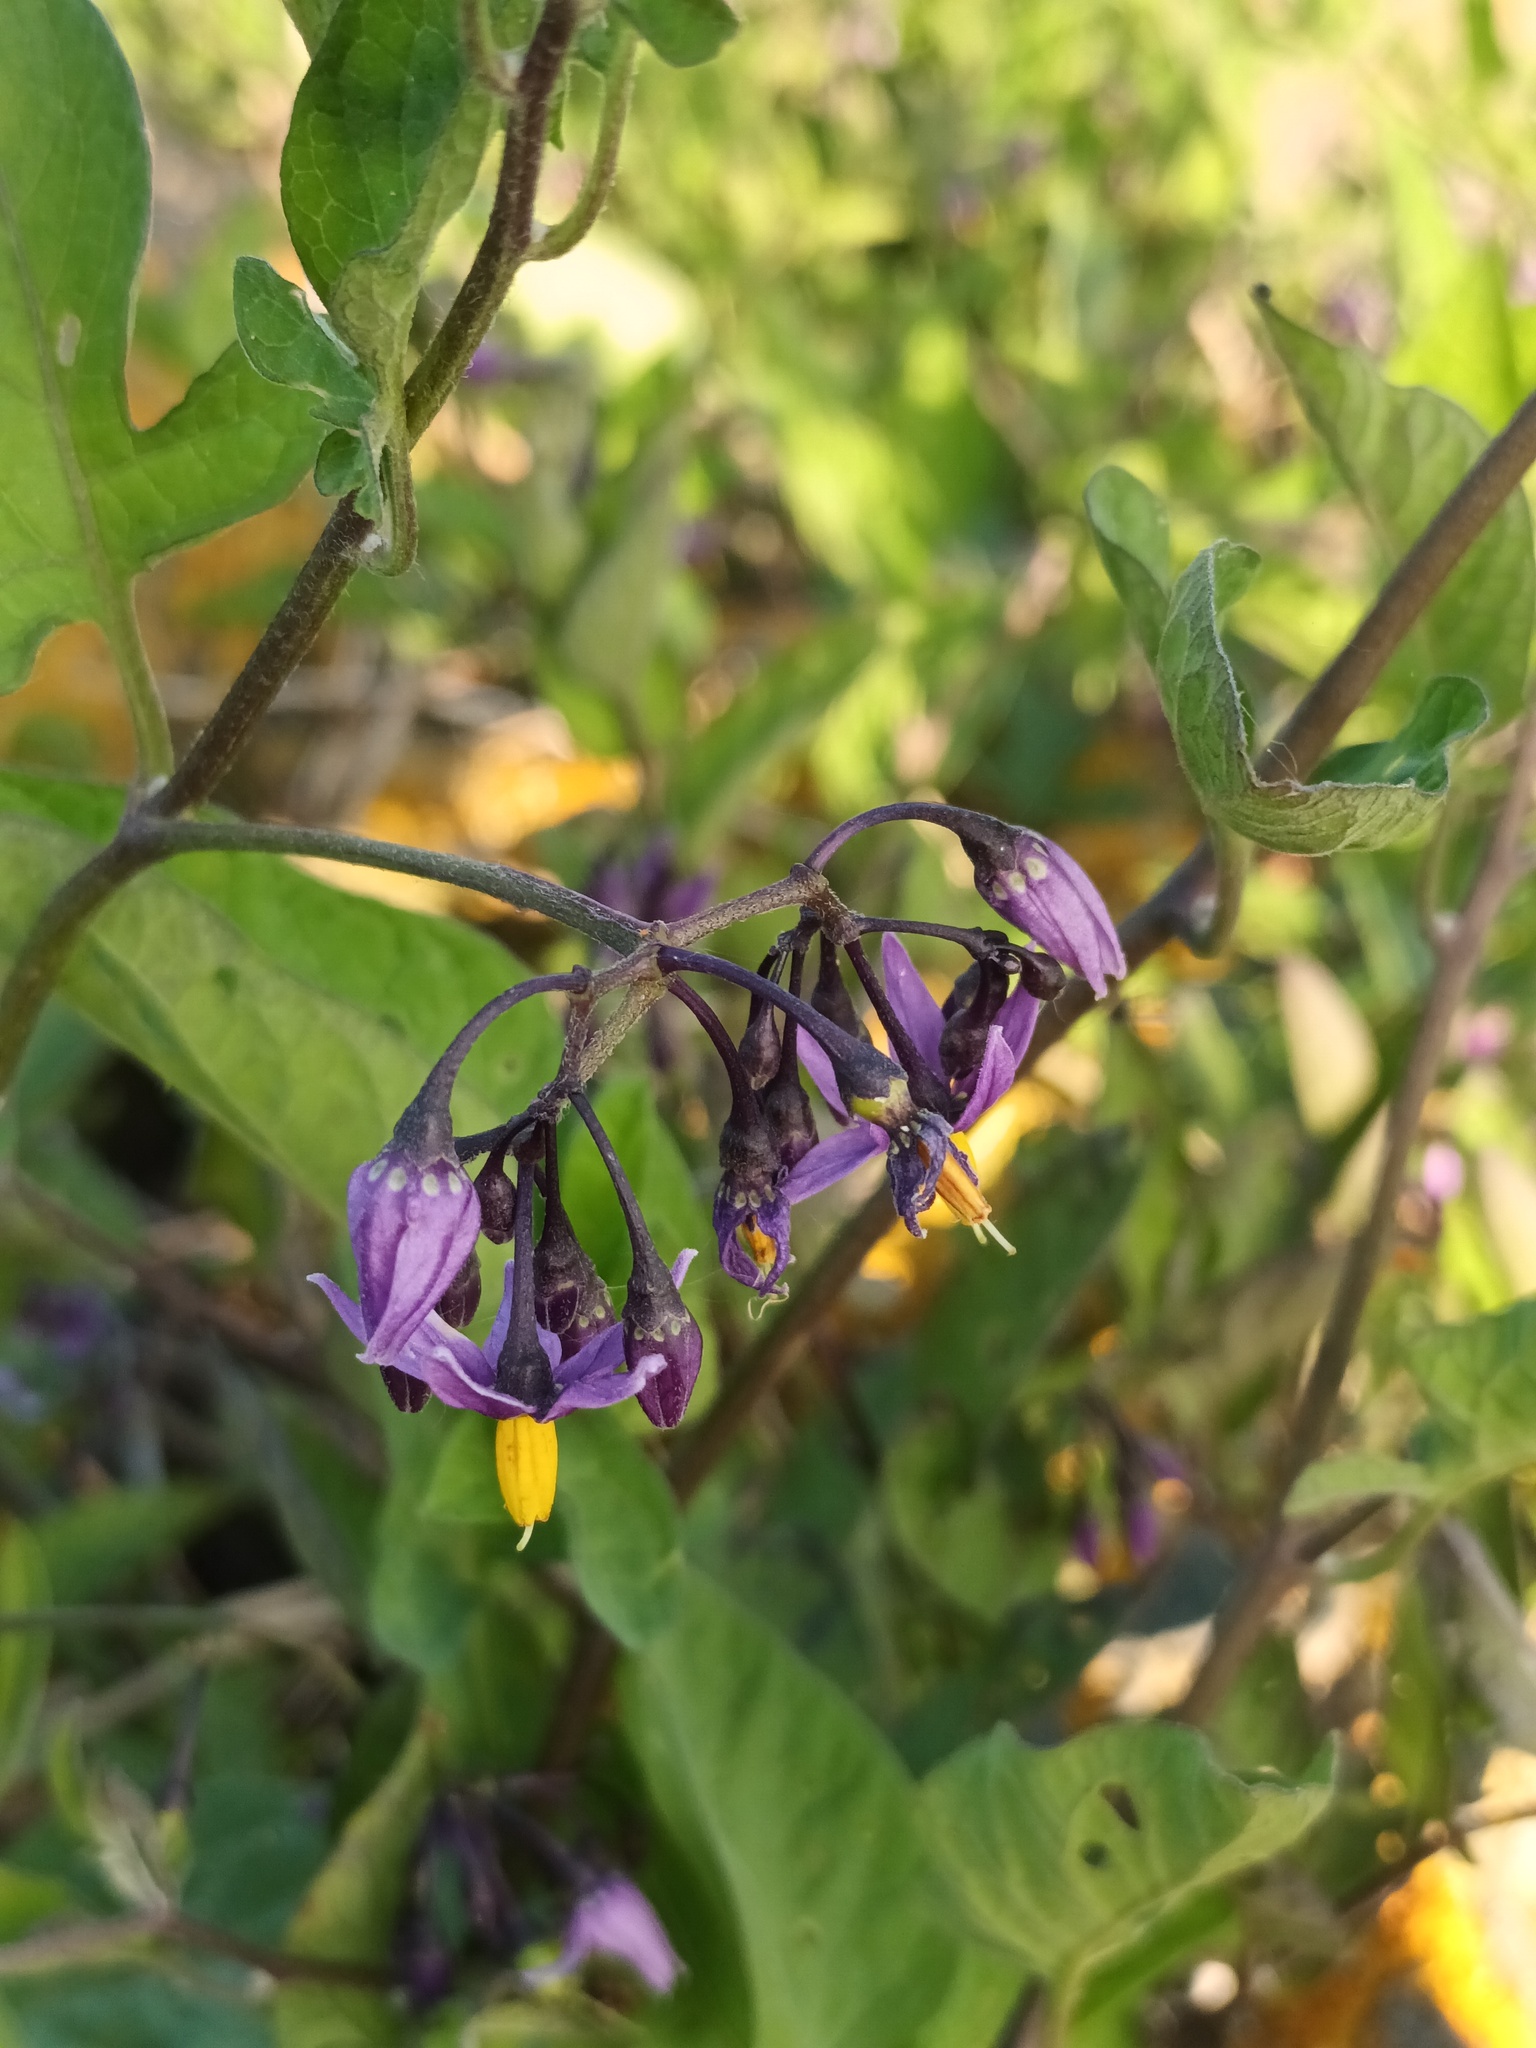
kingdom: Plantae
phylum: Tracheophyta
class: Magnoliopsida
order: Solanales
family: Solanaceae
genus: Solanum
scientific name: Solanum dulcamara
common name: Climbing nightshade
